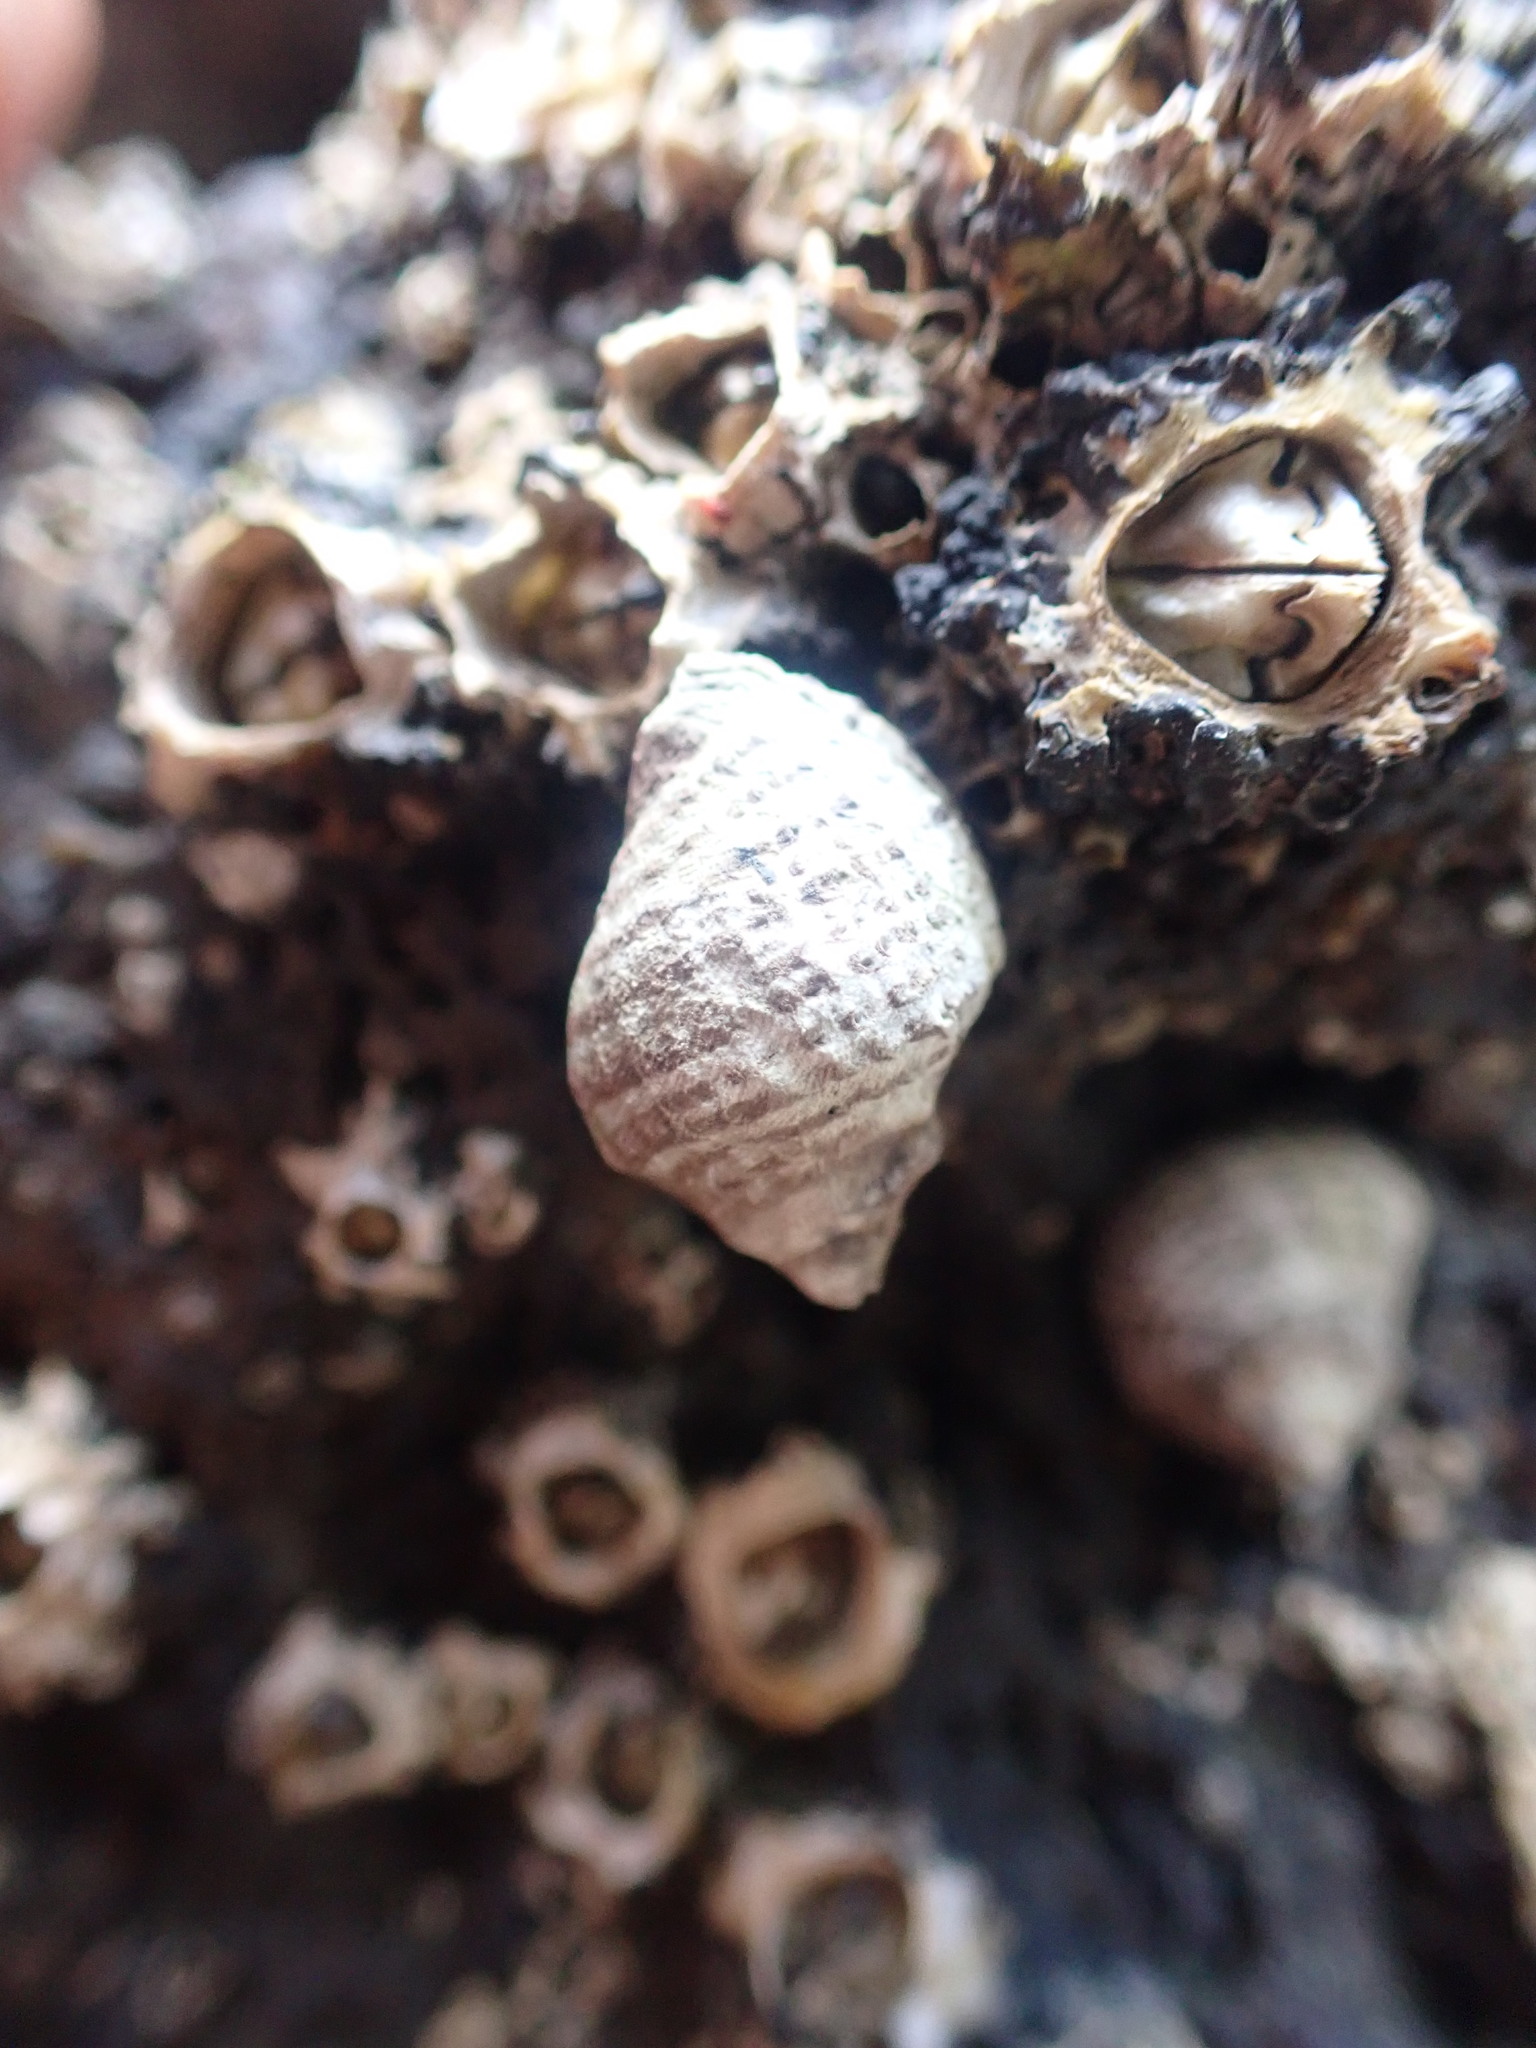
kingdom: Animalia
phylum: Mollusca
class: Gastropoda
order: Neogastropoda
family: Muricidae
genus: Haustrum
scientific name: Haustrum albomarginatum
